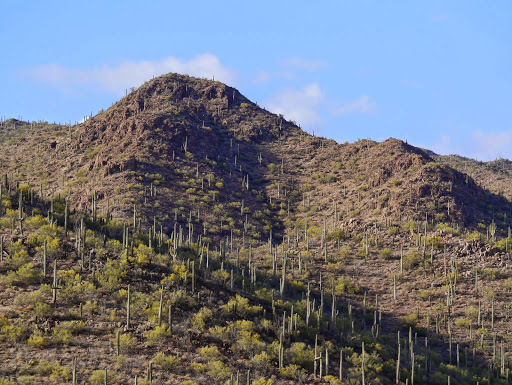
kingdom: Plantae
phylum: Tracheophyta
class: Magnoliopsida
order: Caryophyllales
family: Cactaceae
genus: Carnegiea
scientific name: Carnegiea gigantea
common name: Saguaro
